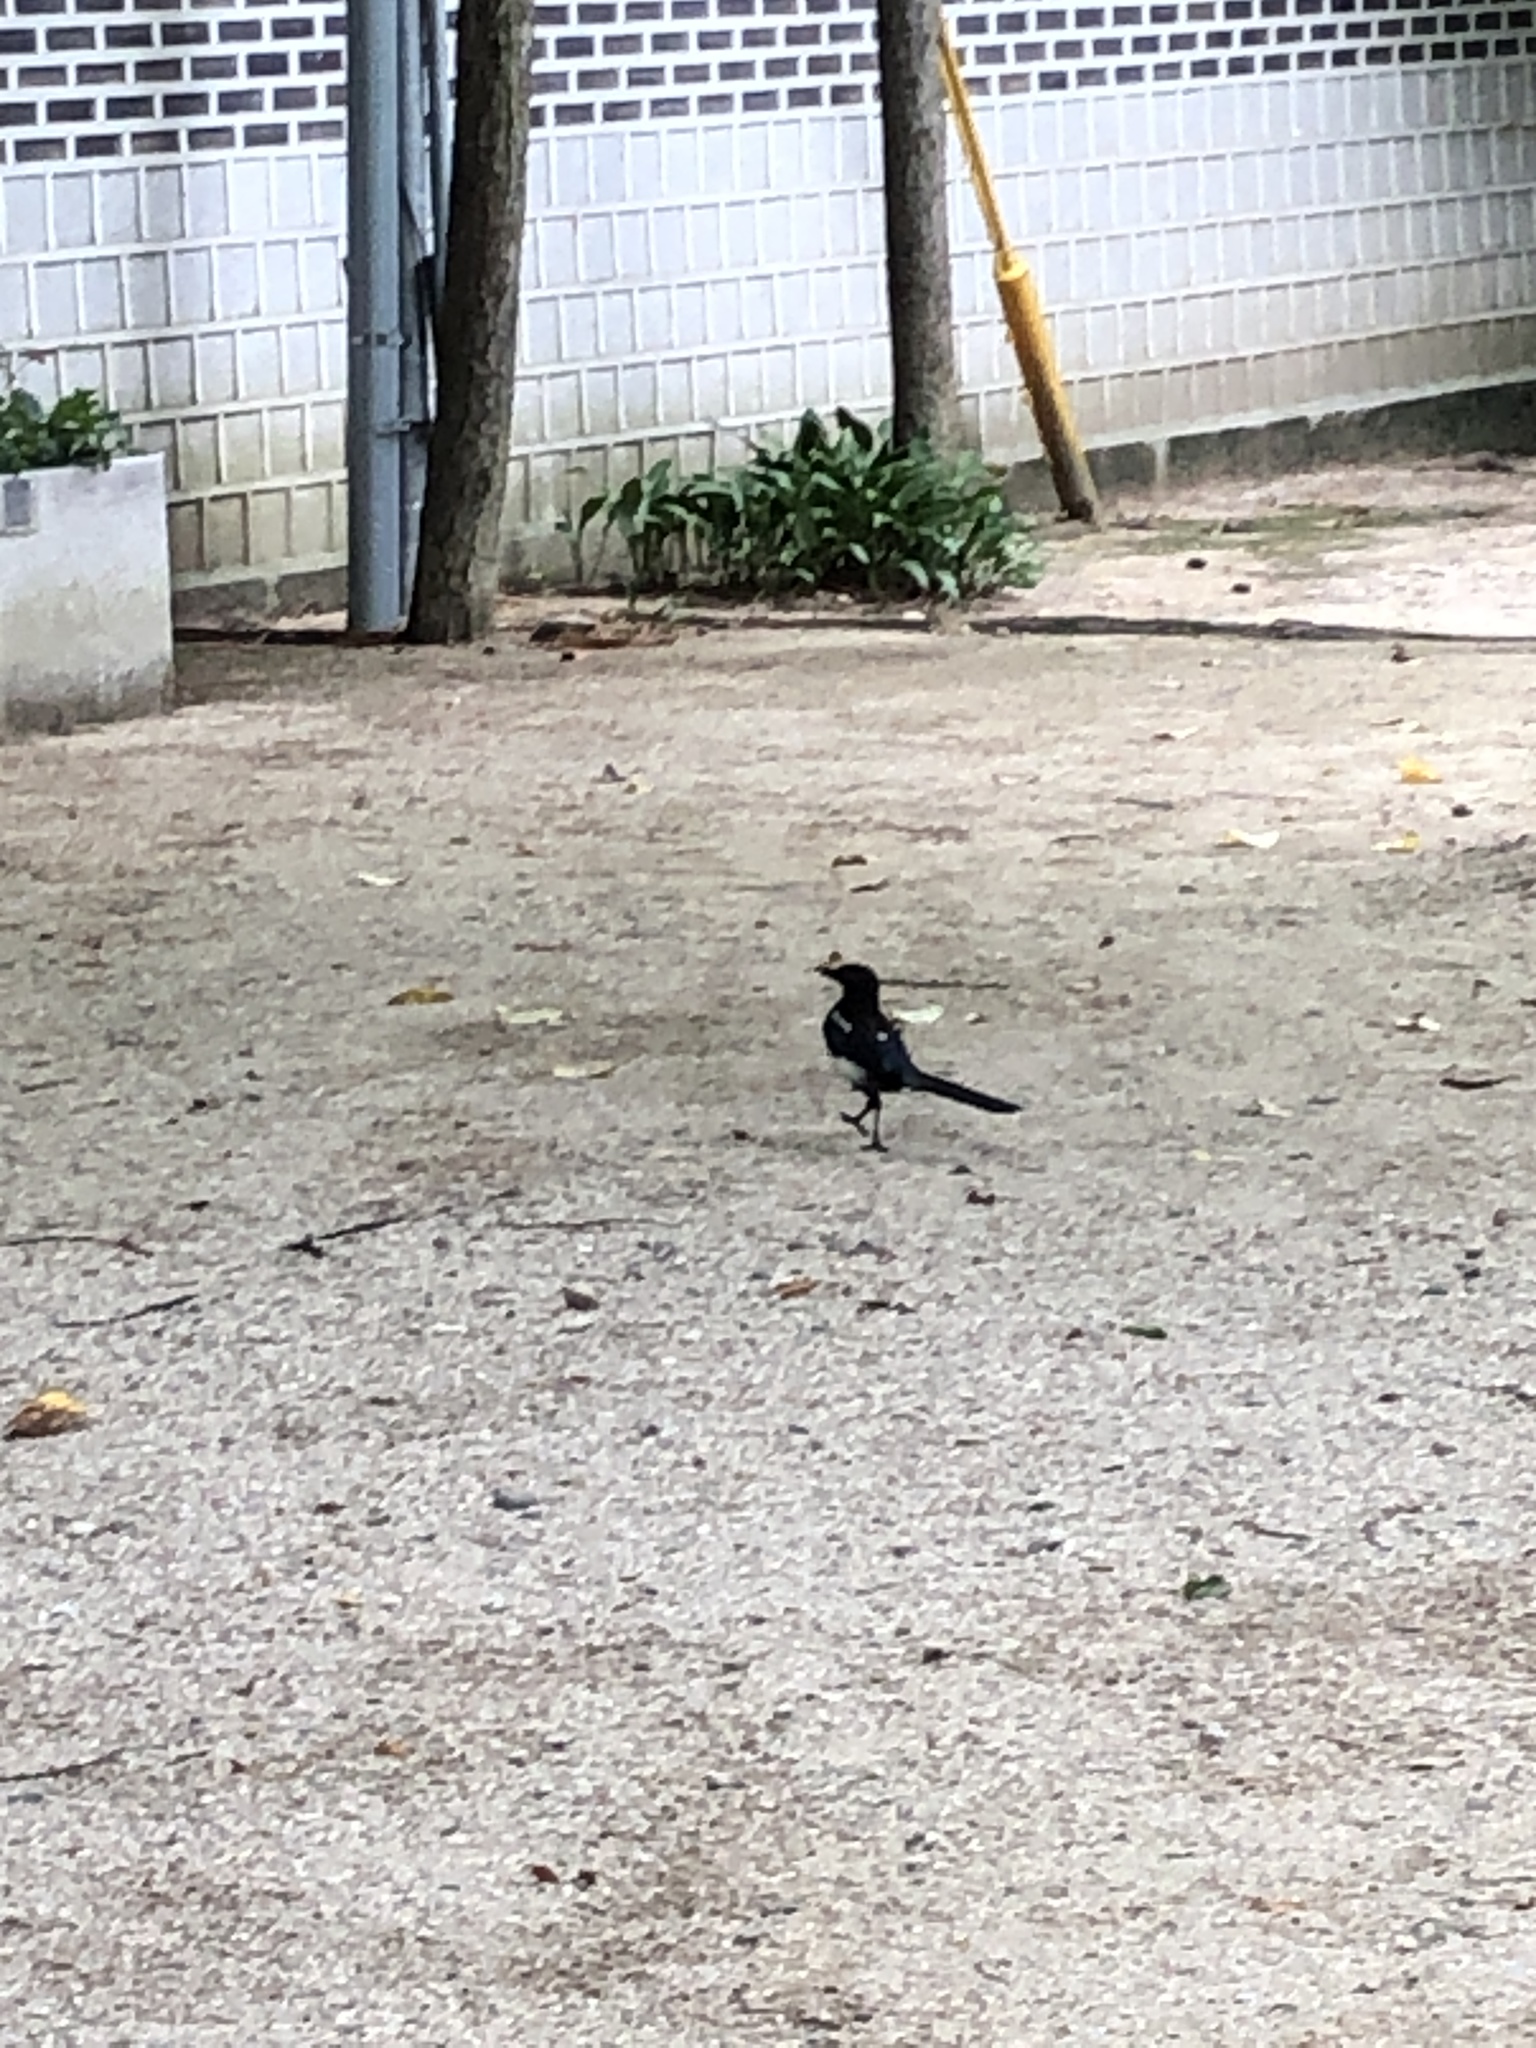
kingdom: Animalia
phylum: Chordata
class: Aves
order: Passeriformes
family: Corvidae
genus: Pica
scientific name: Pica serica
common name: Oriental magpie
